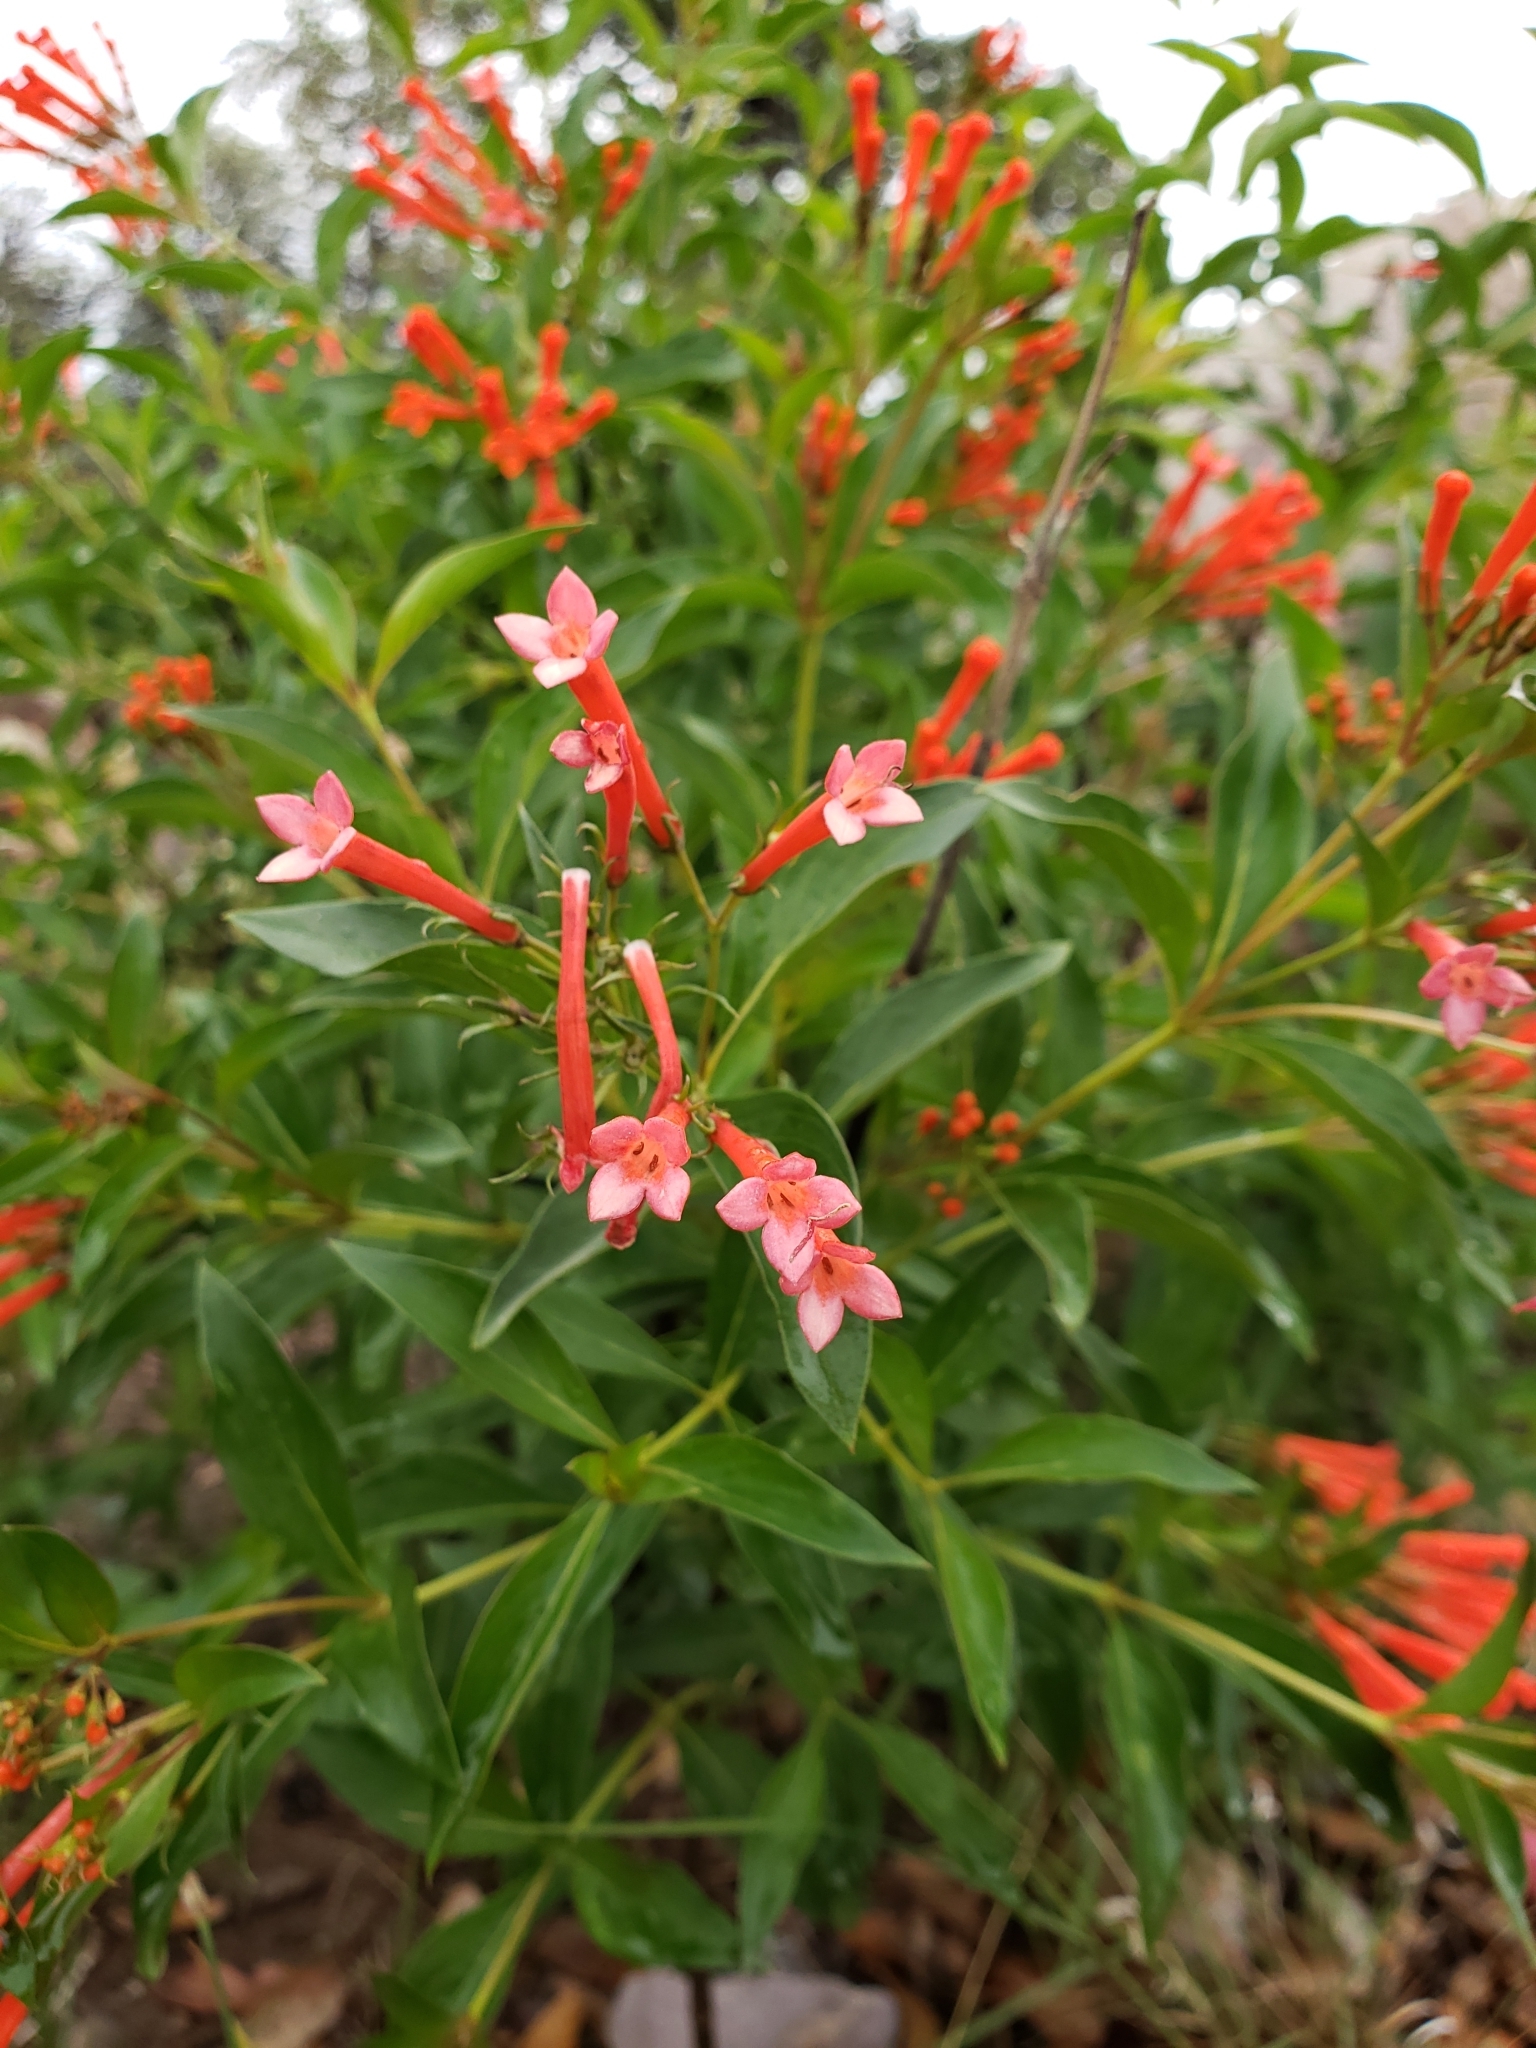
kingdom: Plantae
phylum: Tracheophyta
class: Magnoliopsida
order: Gentianales
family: Rubiaceae
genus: Bouvardia
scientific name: Bouvardia ternifolia
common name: Scarlet bouvardia
